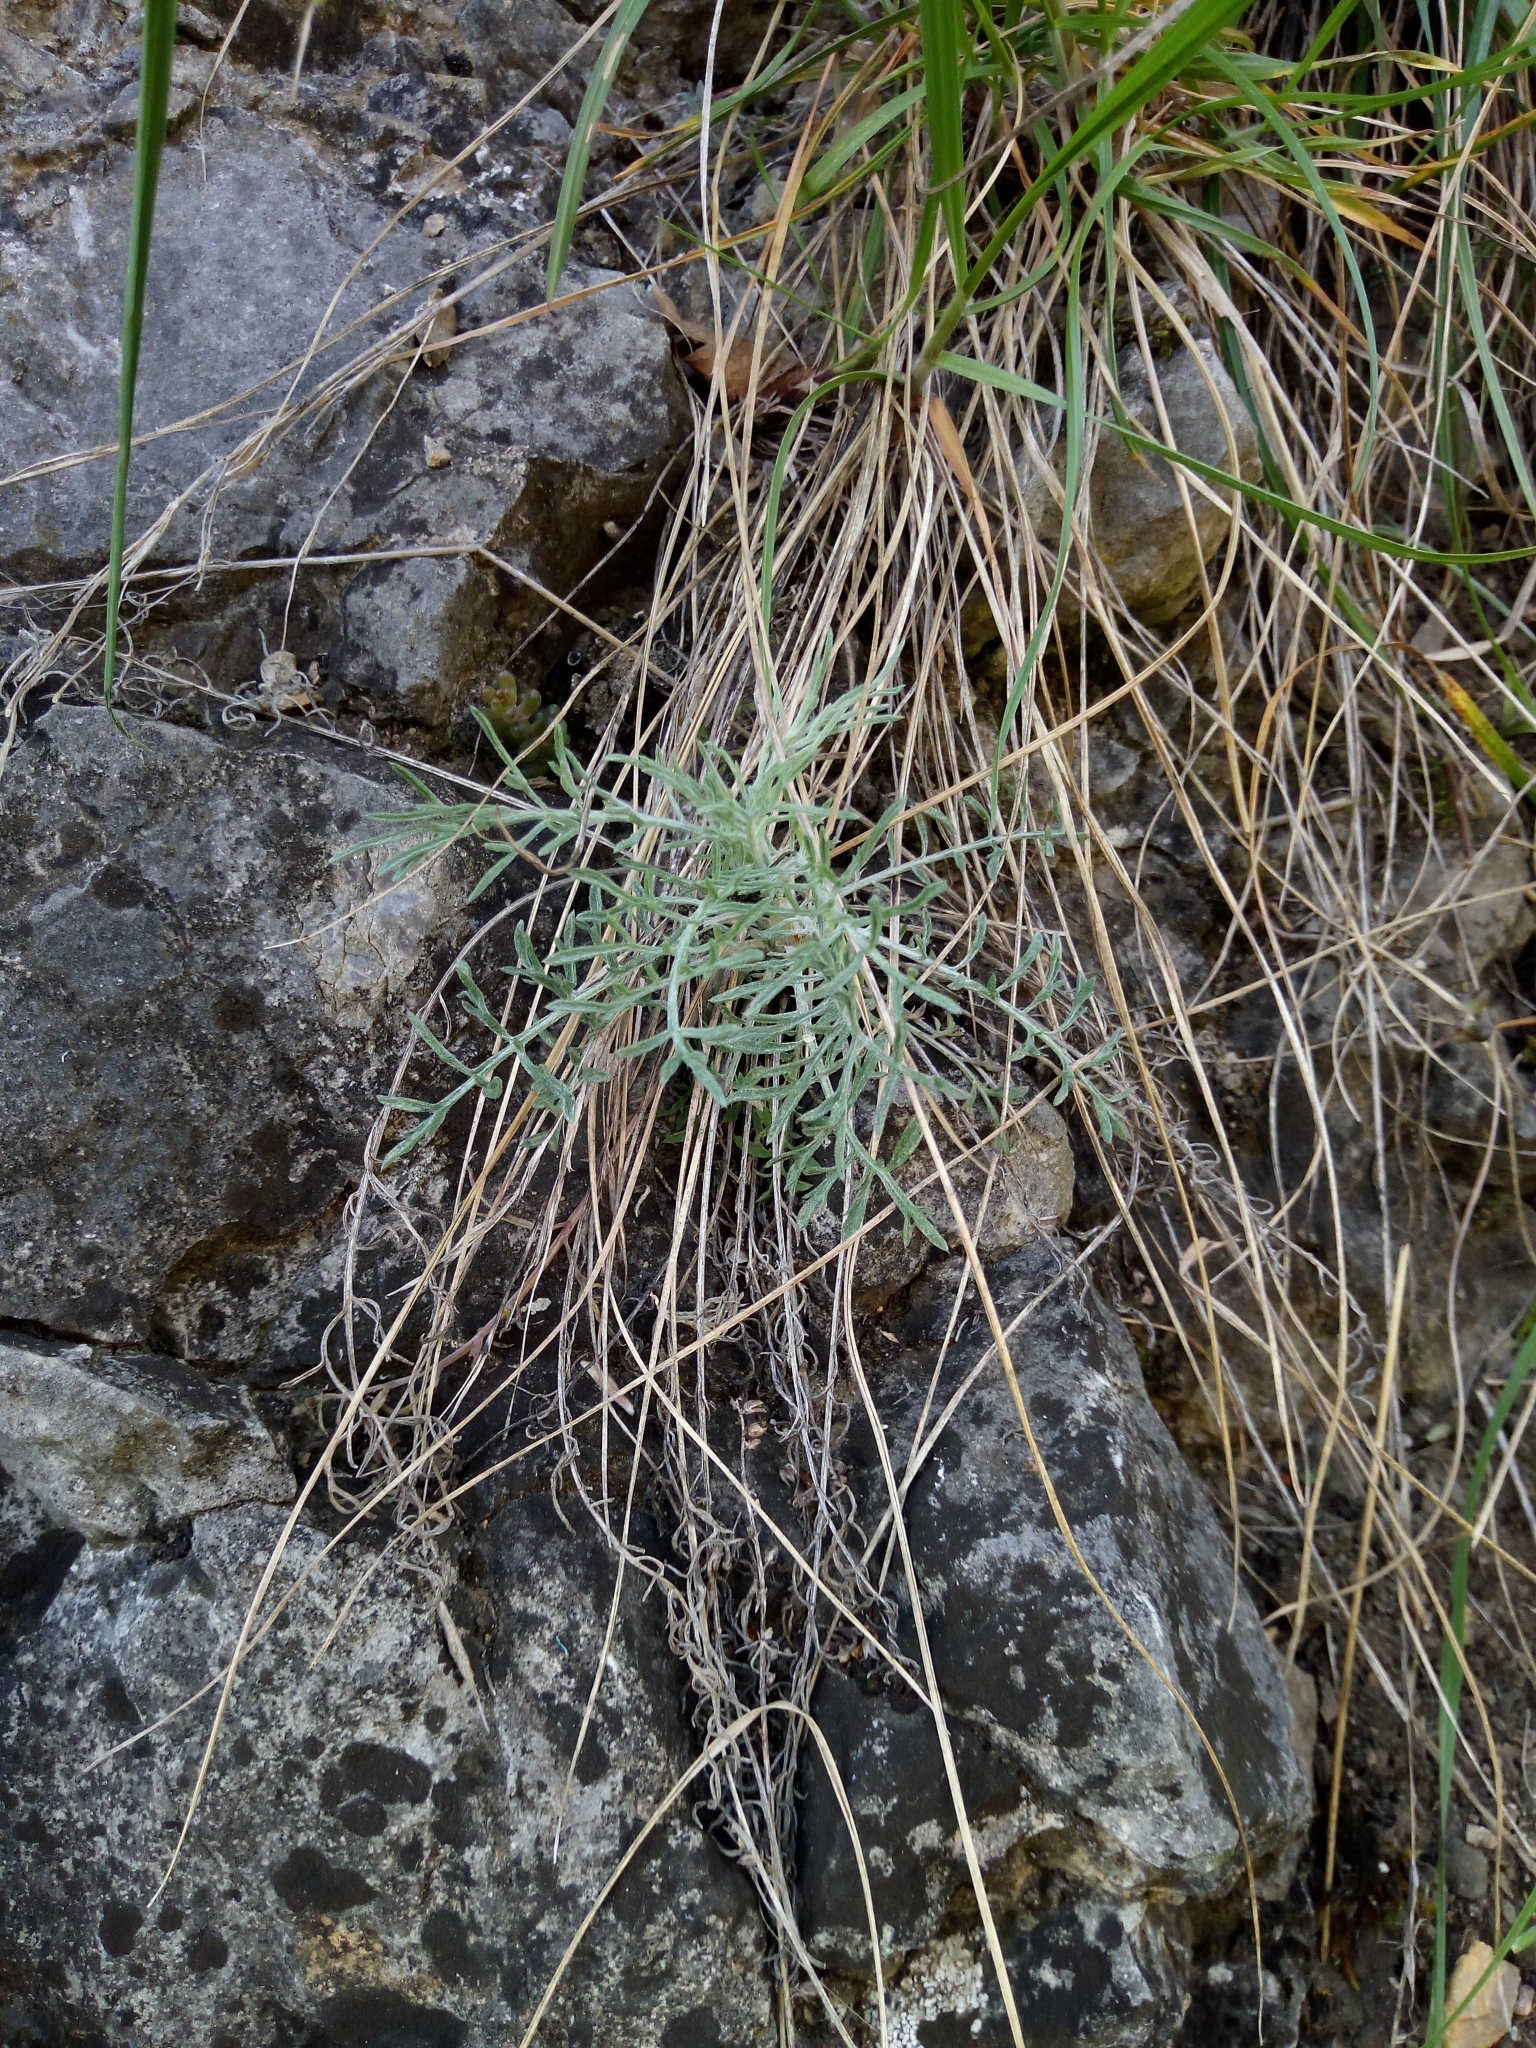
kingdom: Plantae
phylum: Tracheophyta
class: Magnoliopsida
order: Asterales
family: Asteraceae
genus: Centaurea
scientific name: Centaurea stoebe
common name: Spotted knapweed
